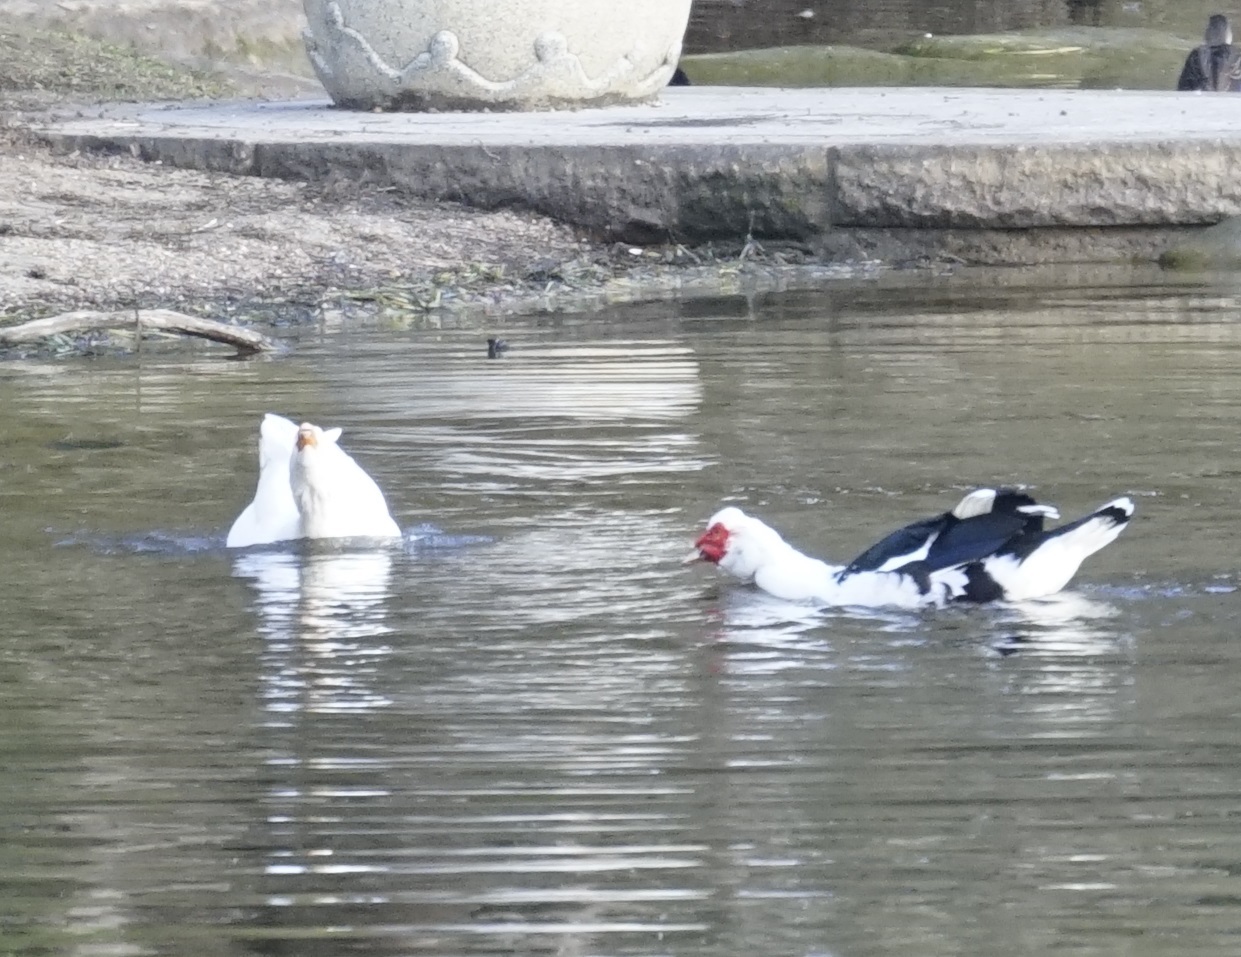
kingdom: Animalia
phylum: Chordata
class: Aves
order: Anseriformes
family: Anatidae
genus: Cairina
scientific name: Cairina moschata
